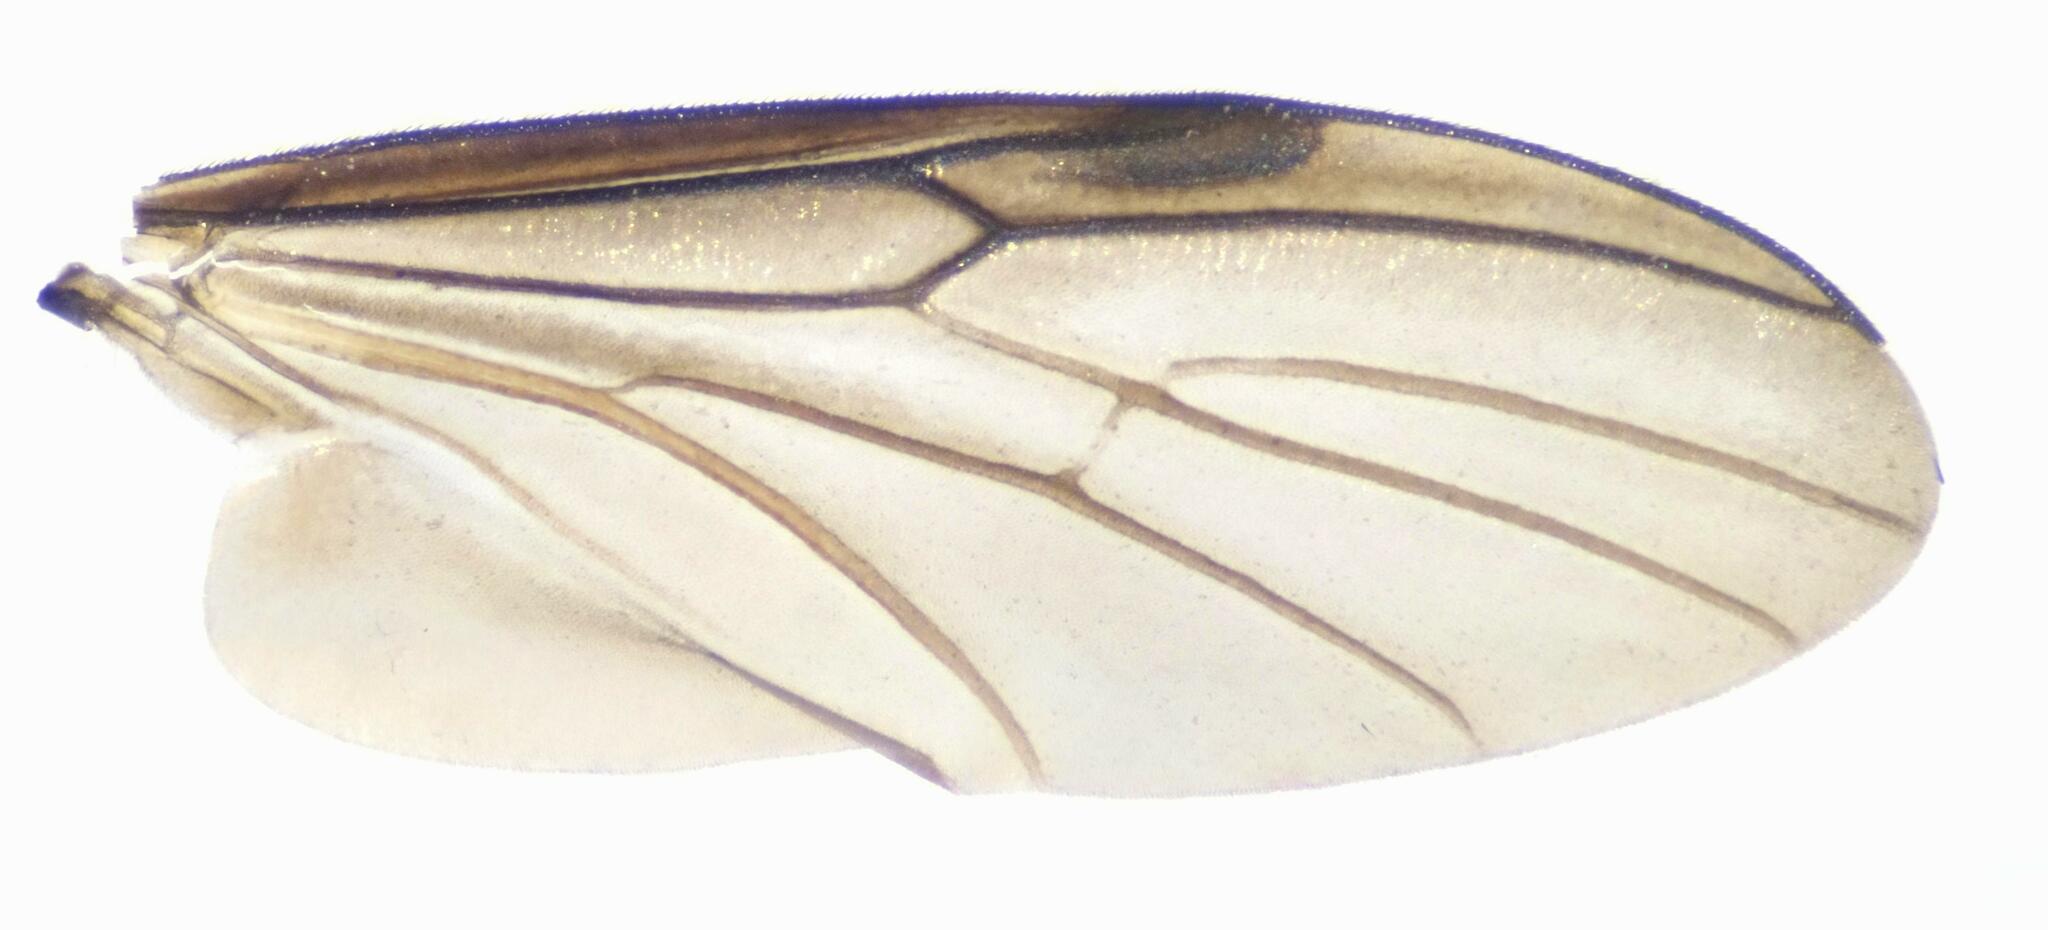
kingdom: Animalia
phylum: Arthropoda
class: Insecta
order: Diptera
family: Bibionidae
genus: Bibio
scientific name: Bibio leucoptera
